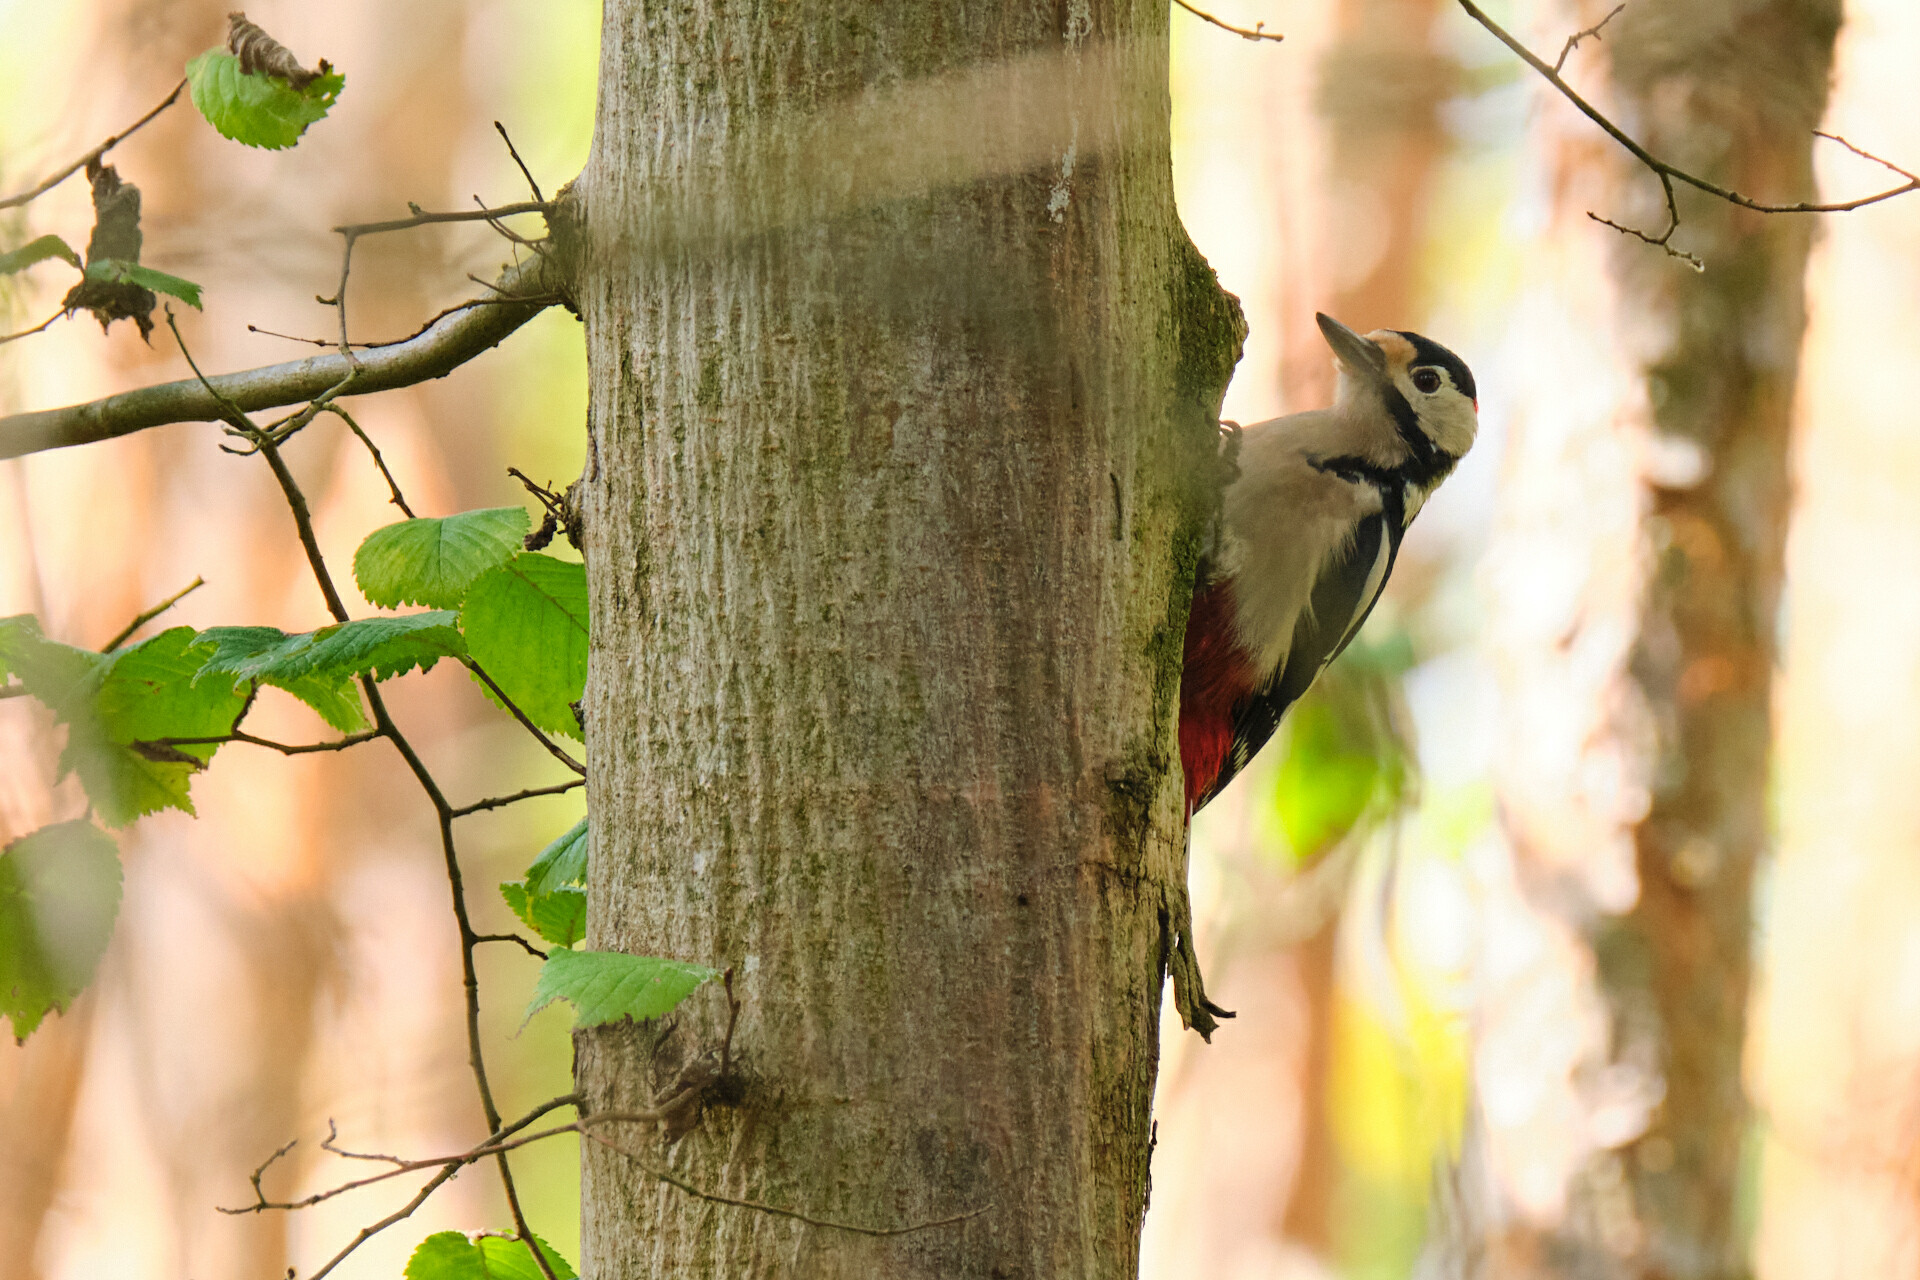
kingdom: Animalia
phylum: Chordata
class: Aves
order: Piciformes
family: Picidae
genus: Dendrocopos
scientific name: Dendrocopos major
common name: Great spotted woodpecker
